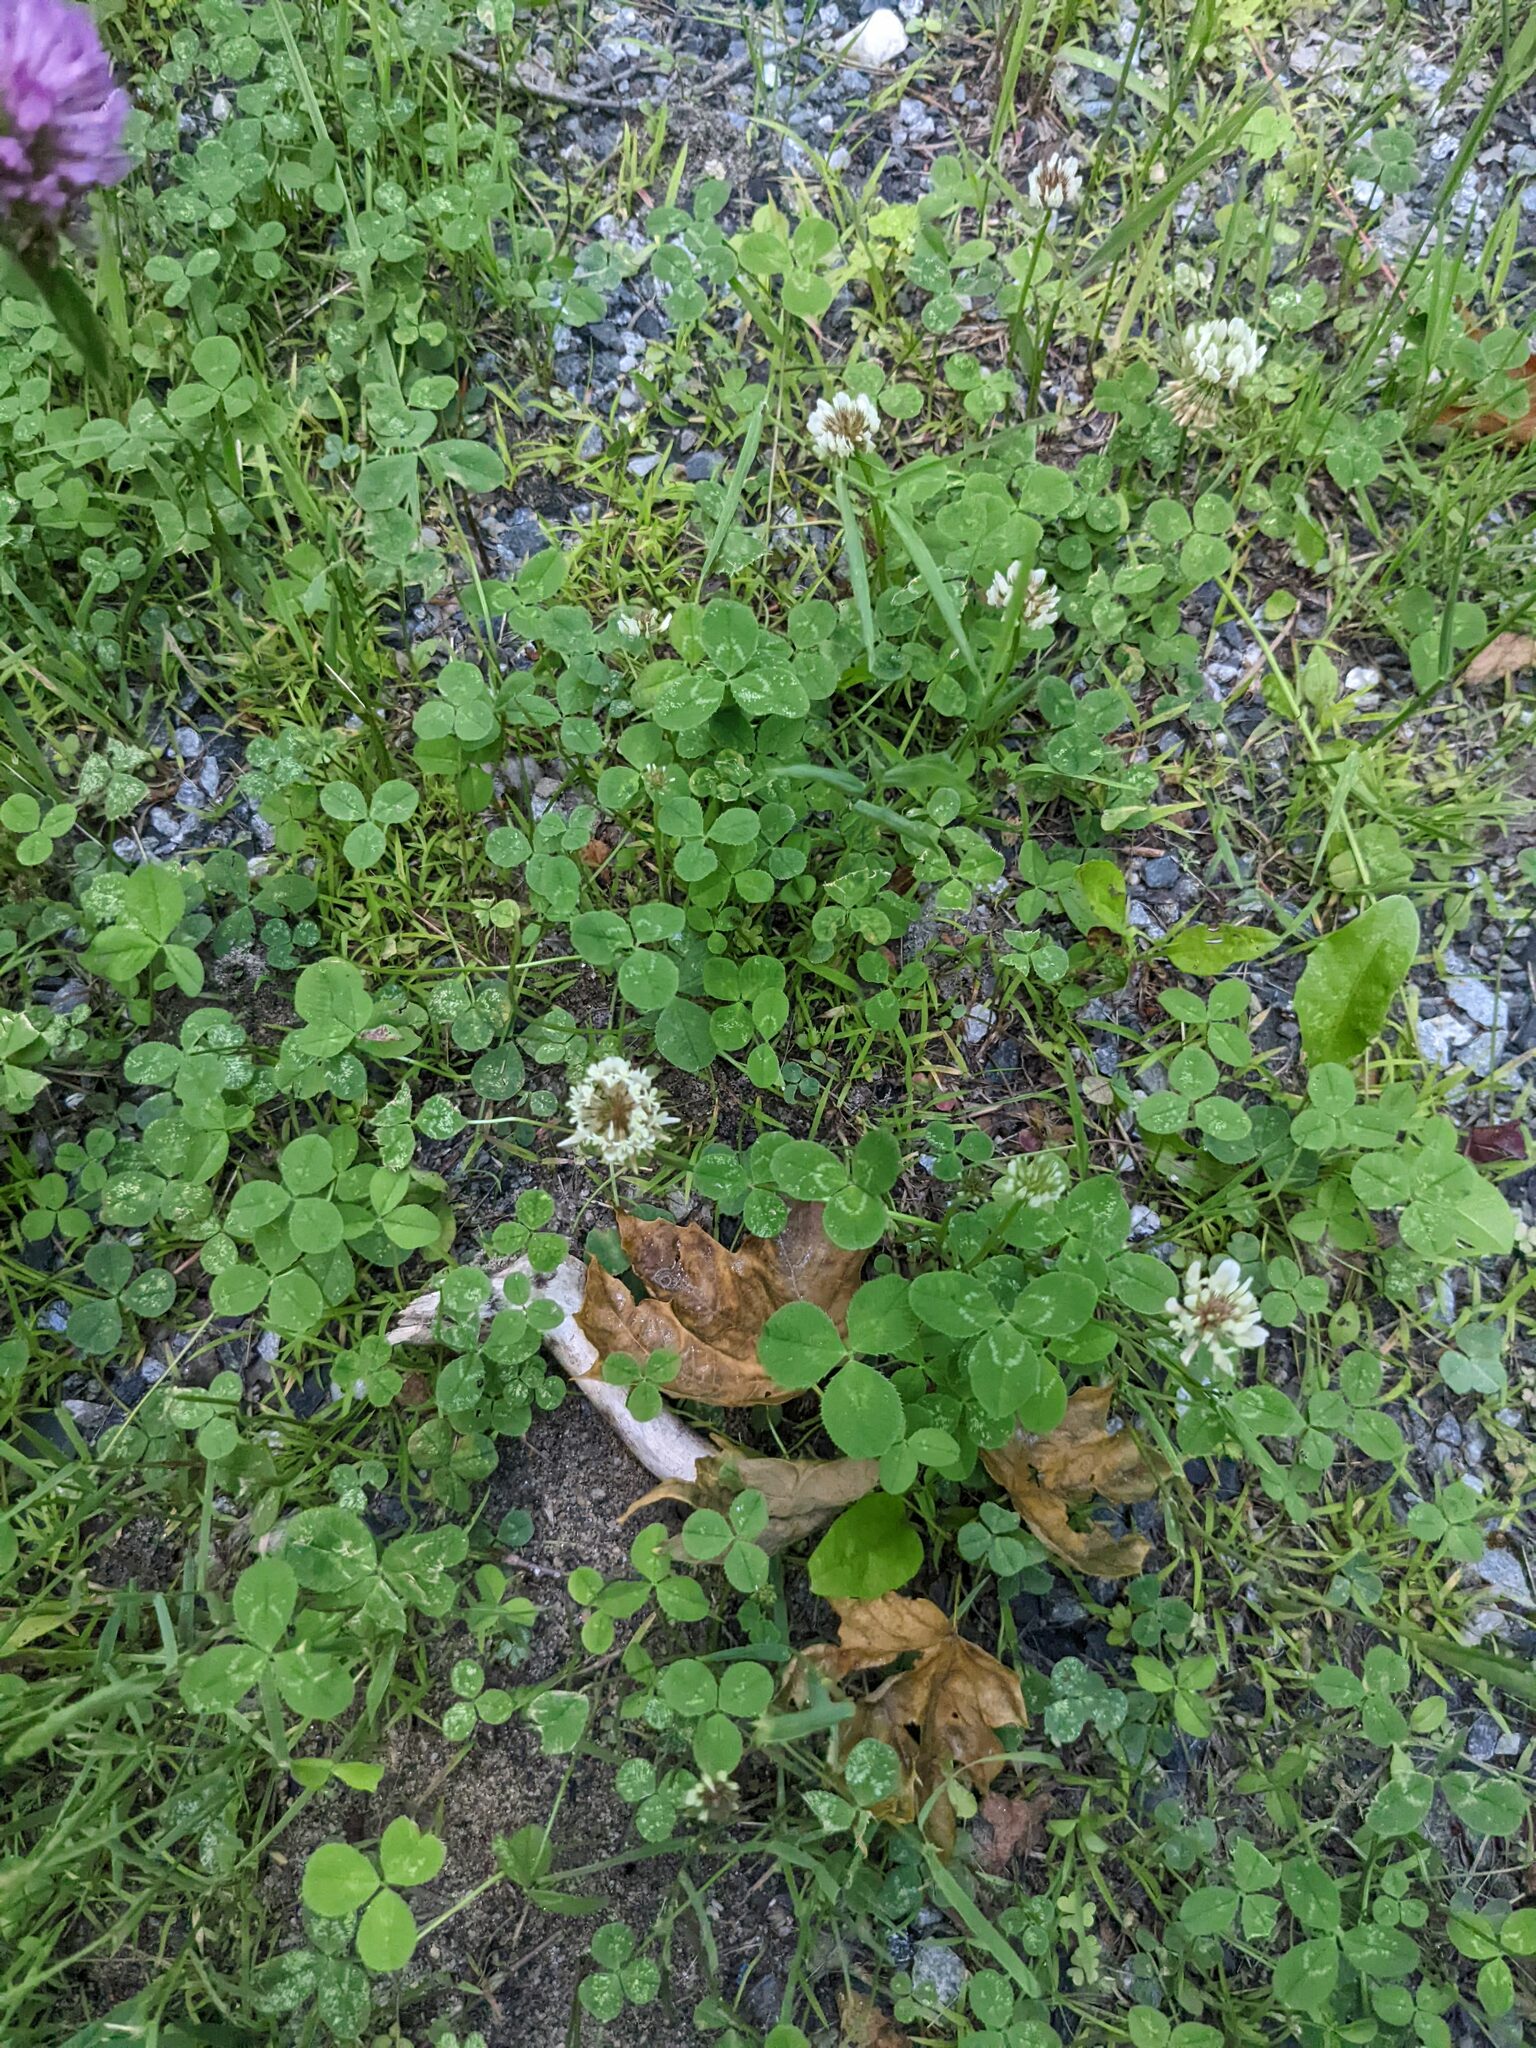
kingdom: Plantae
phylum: Tracheophyta
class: Magnoliopsida
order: Fabales
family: Fabaceae
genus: Trifolium
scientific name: Trifolium repens
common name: White clover
